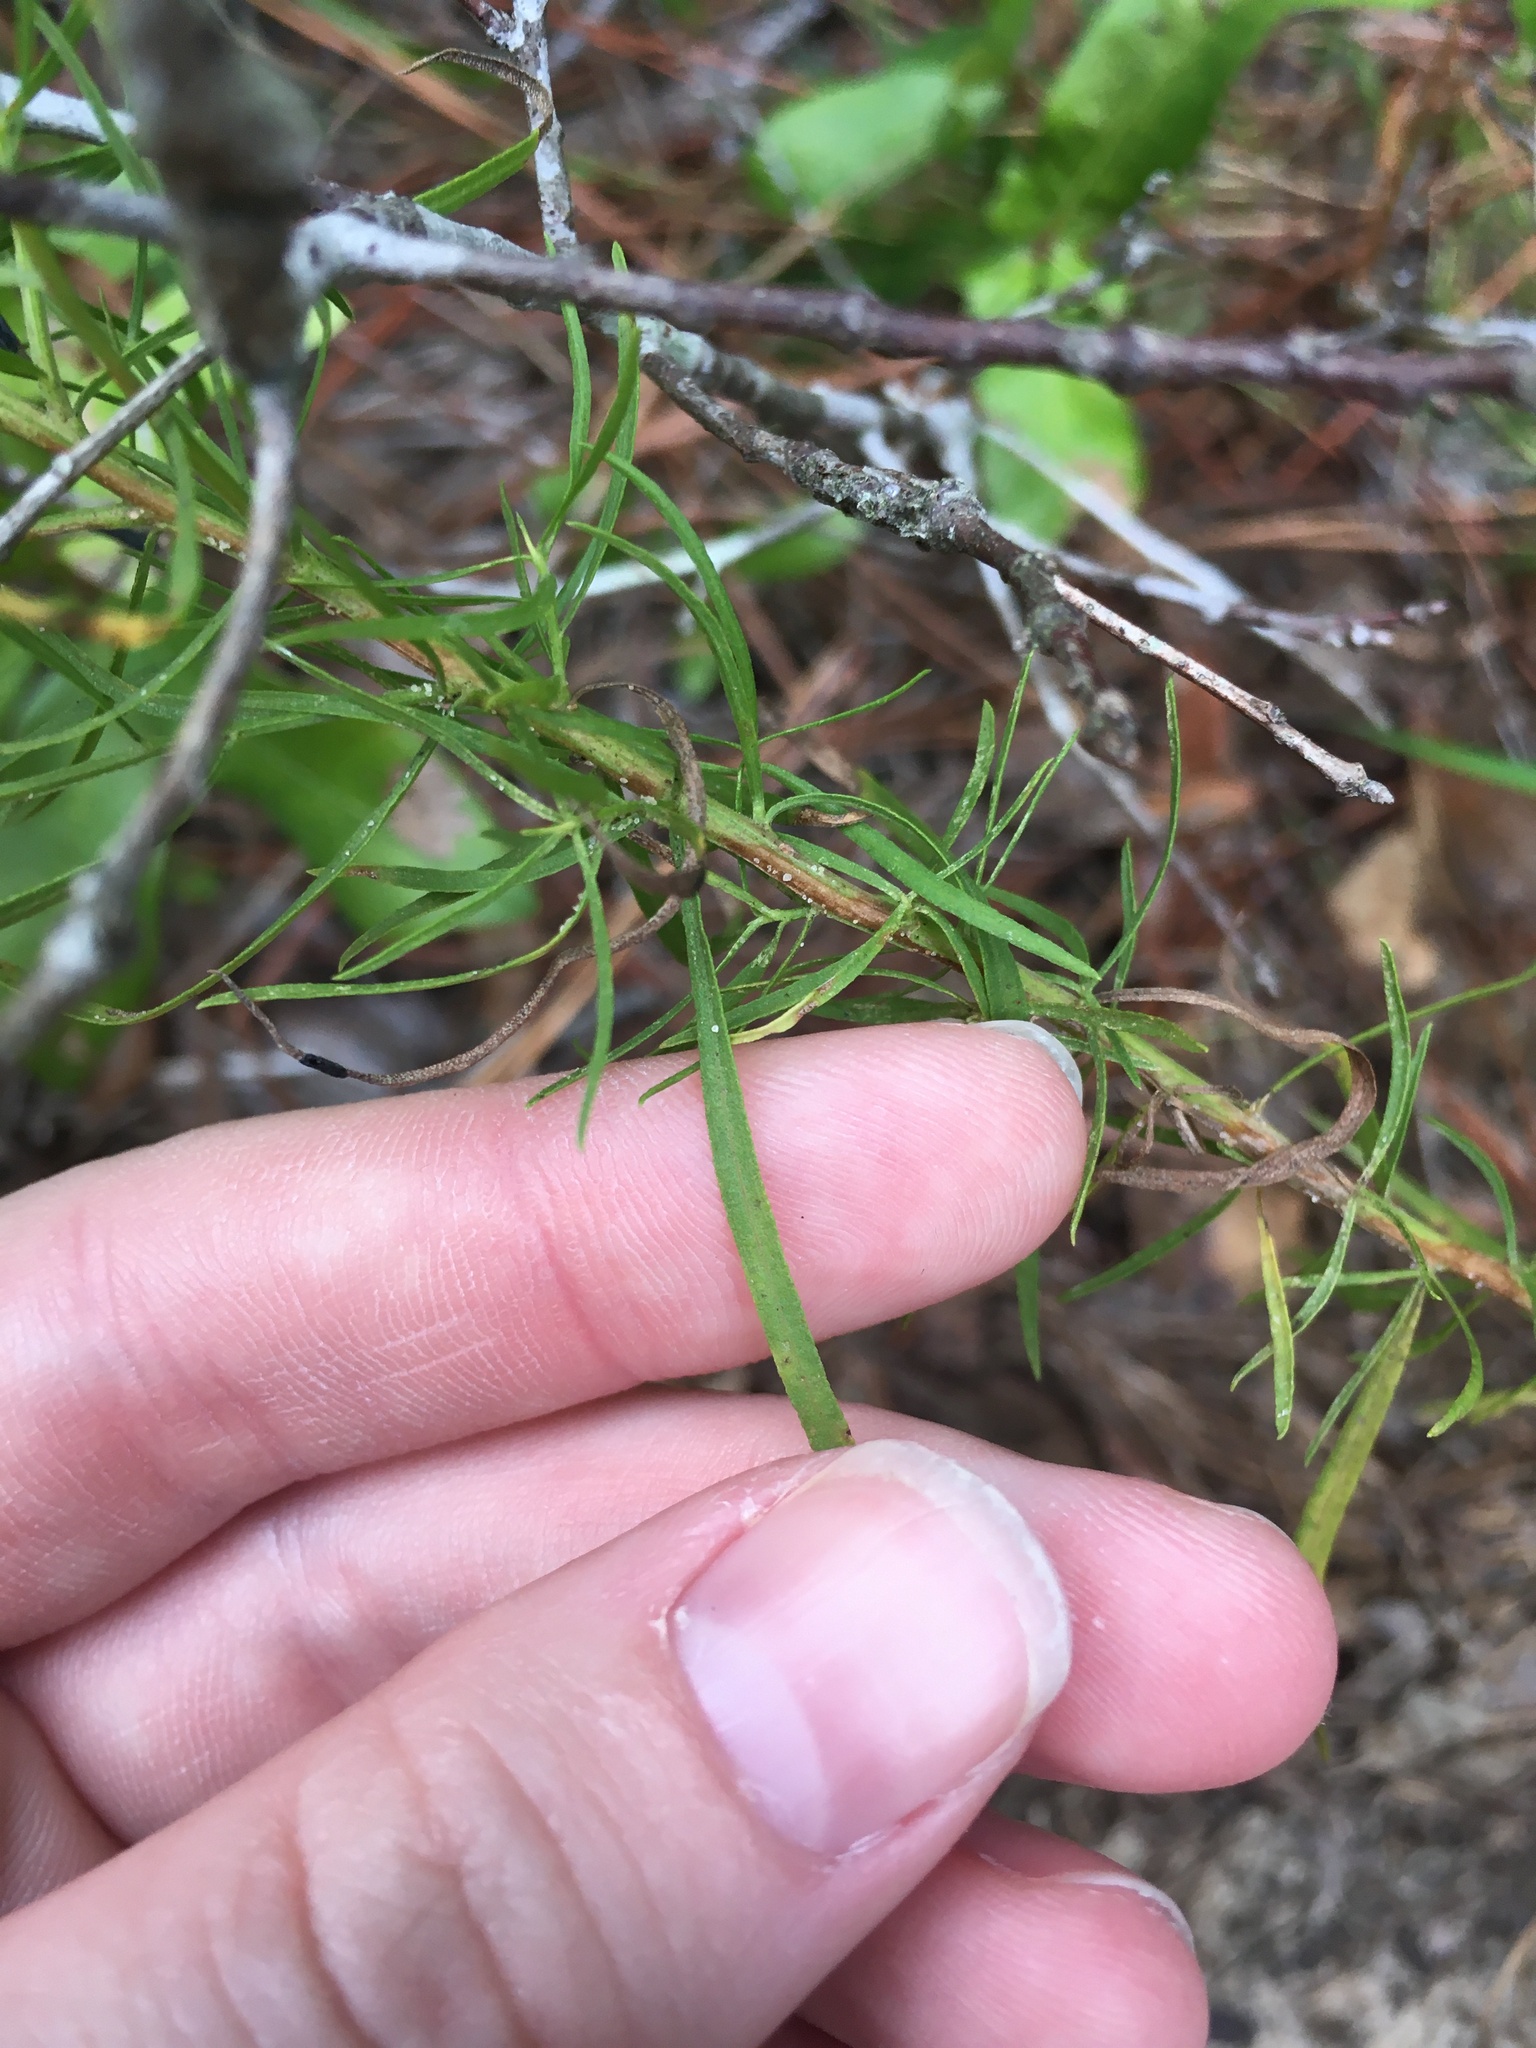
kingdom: Plantae
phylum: Tracheophyta
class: Magnoliopsida
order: Asterales
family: Asteraceae
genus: Euthamia
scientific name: Euthamia caroliniana
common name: Coastal plain goldentop
